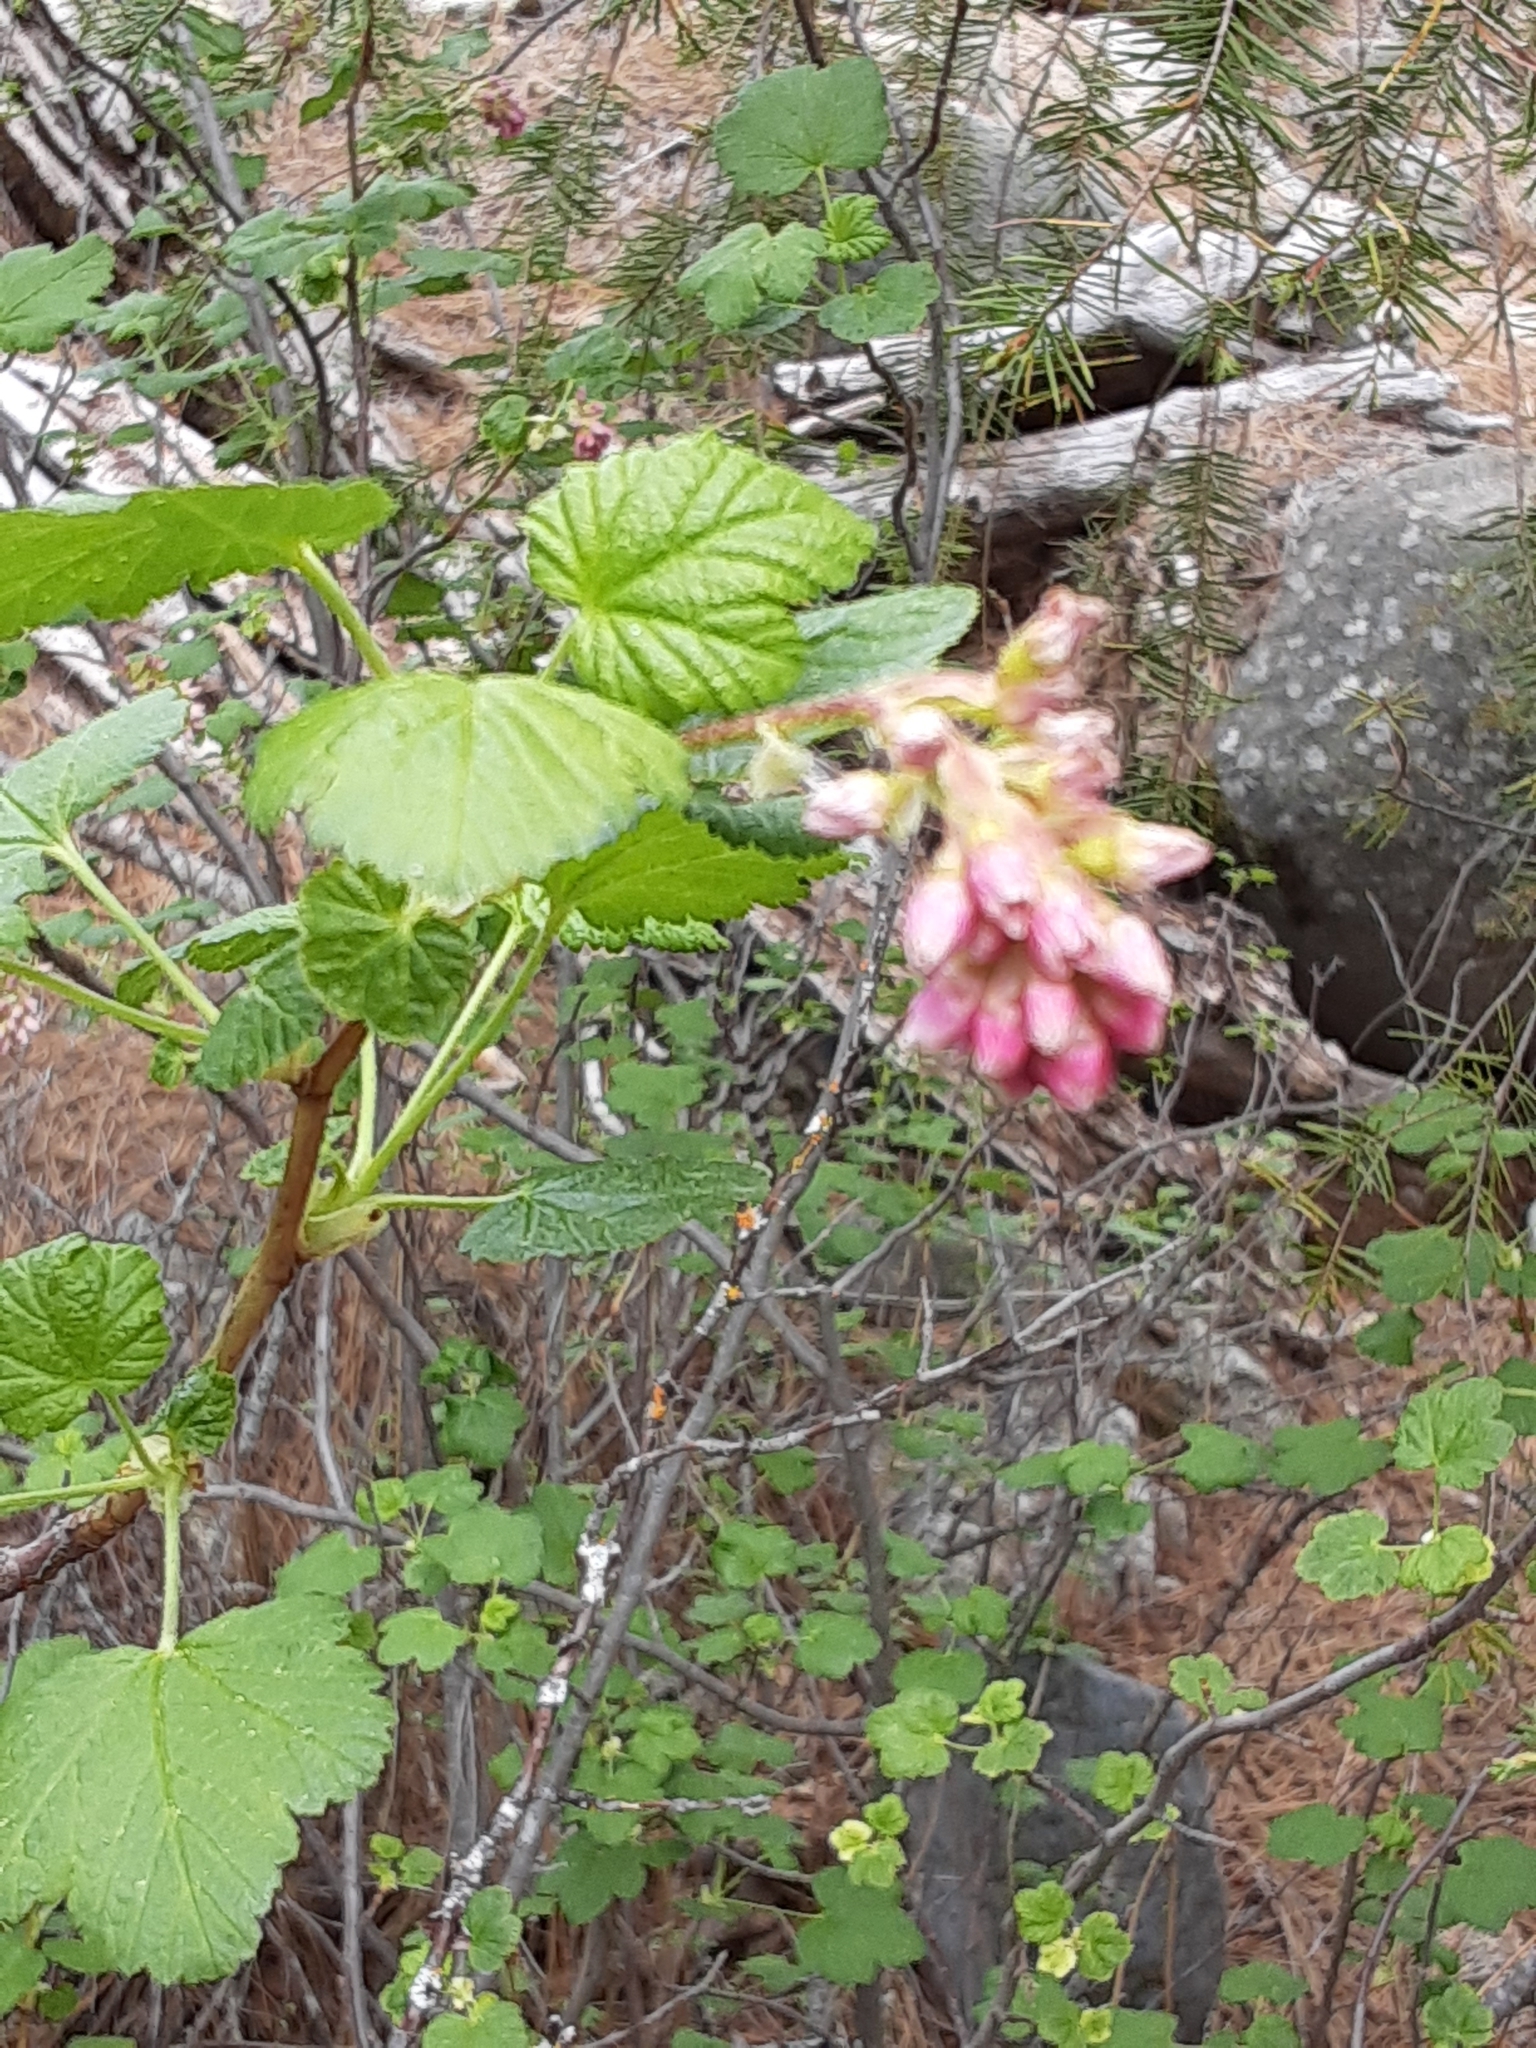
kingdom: Plantae
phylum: Tracheophyta
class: Magnoliopsida
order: Saxifragales
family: Grossulariaceae
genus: Ribes
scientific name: Ribes nevadense
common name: Mountain pink currant
